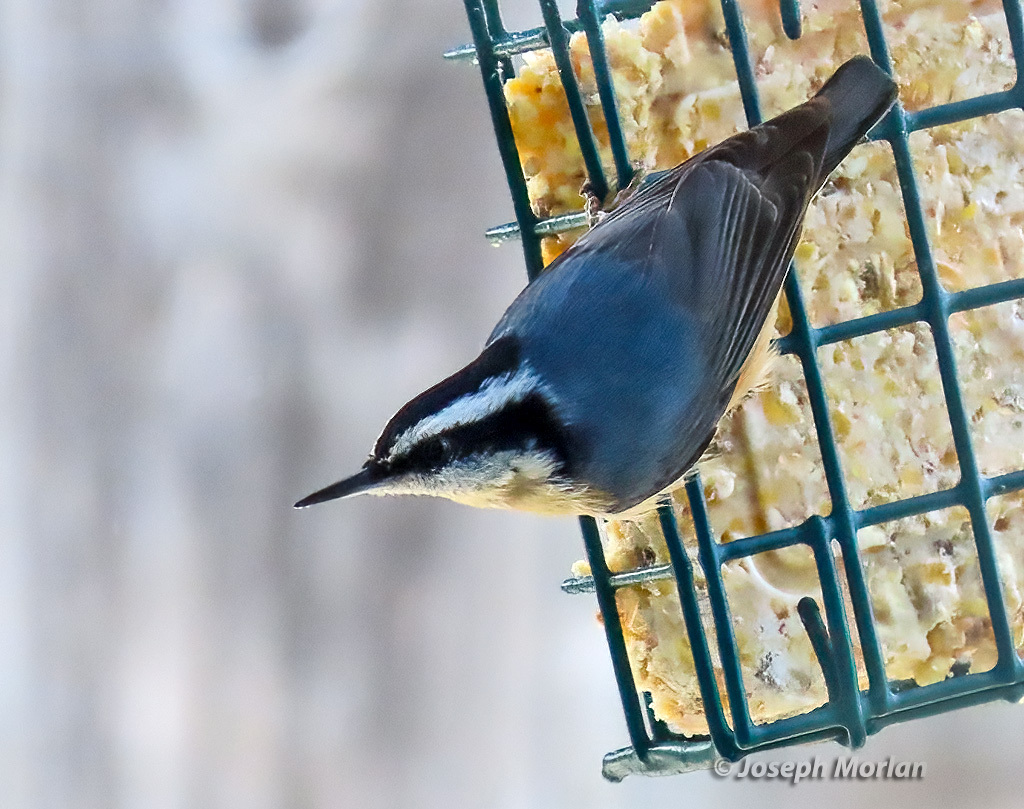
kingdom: Animalia
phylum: Chordata
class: Aves
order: Passeriformes
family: Sittidae
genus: Sitta
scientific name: Sitta canadensis
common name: Red-breasted nuthatch
